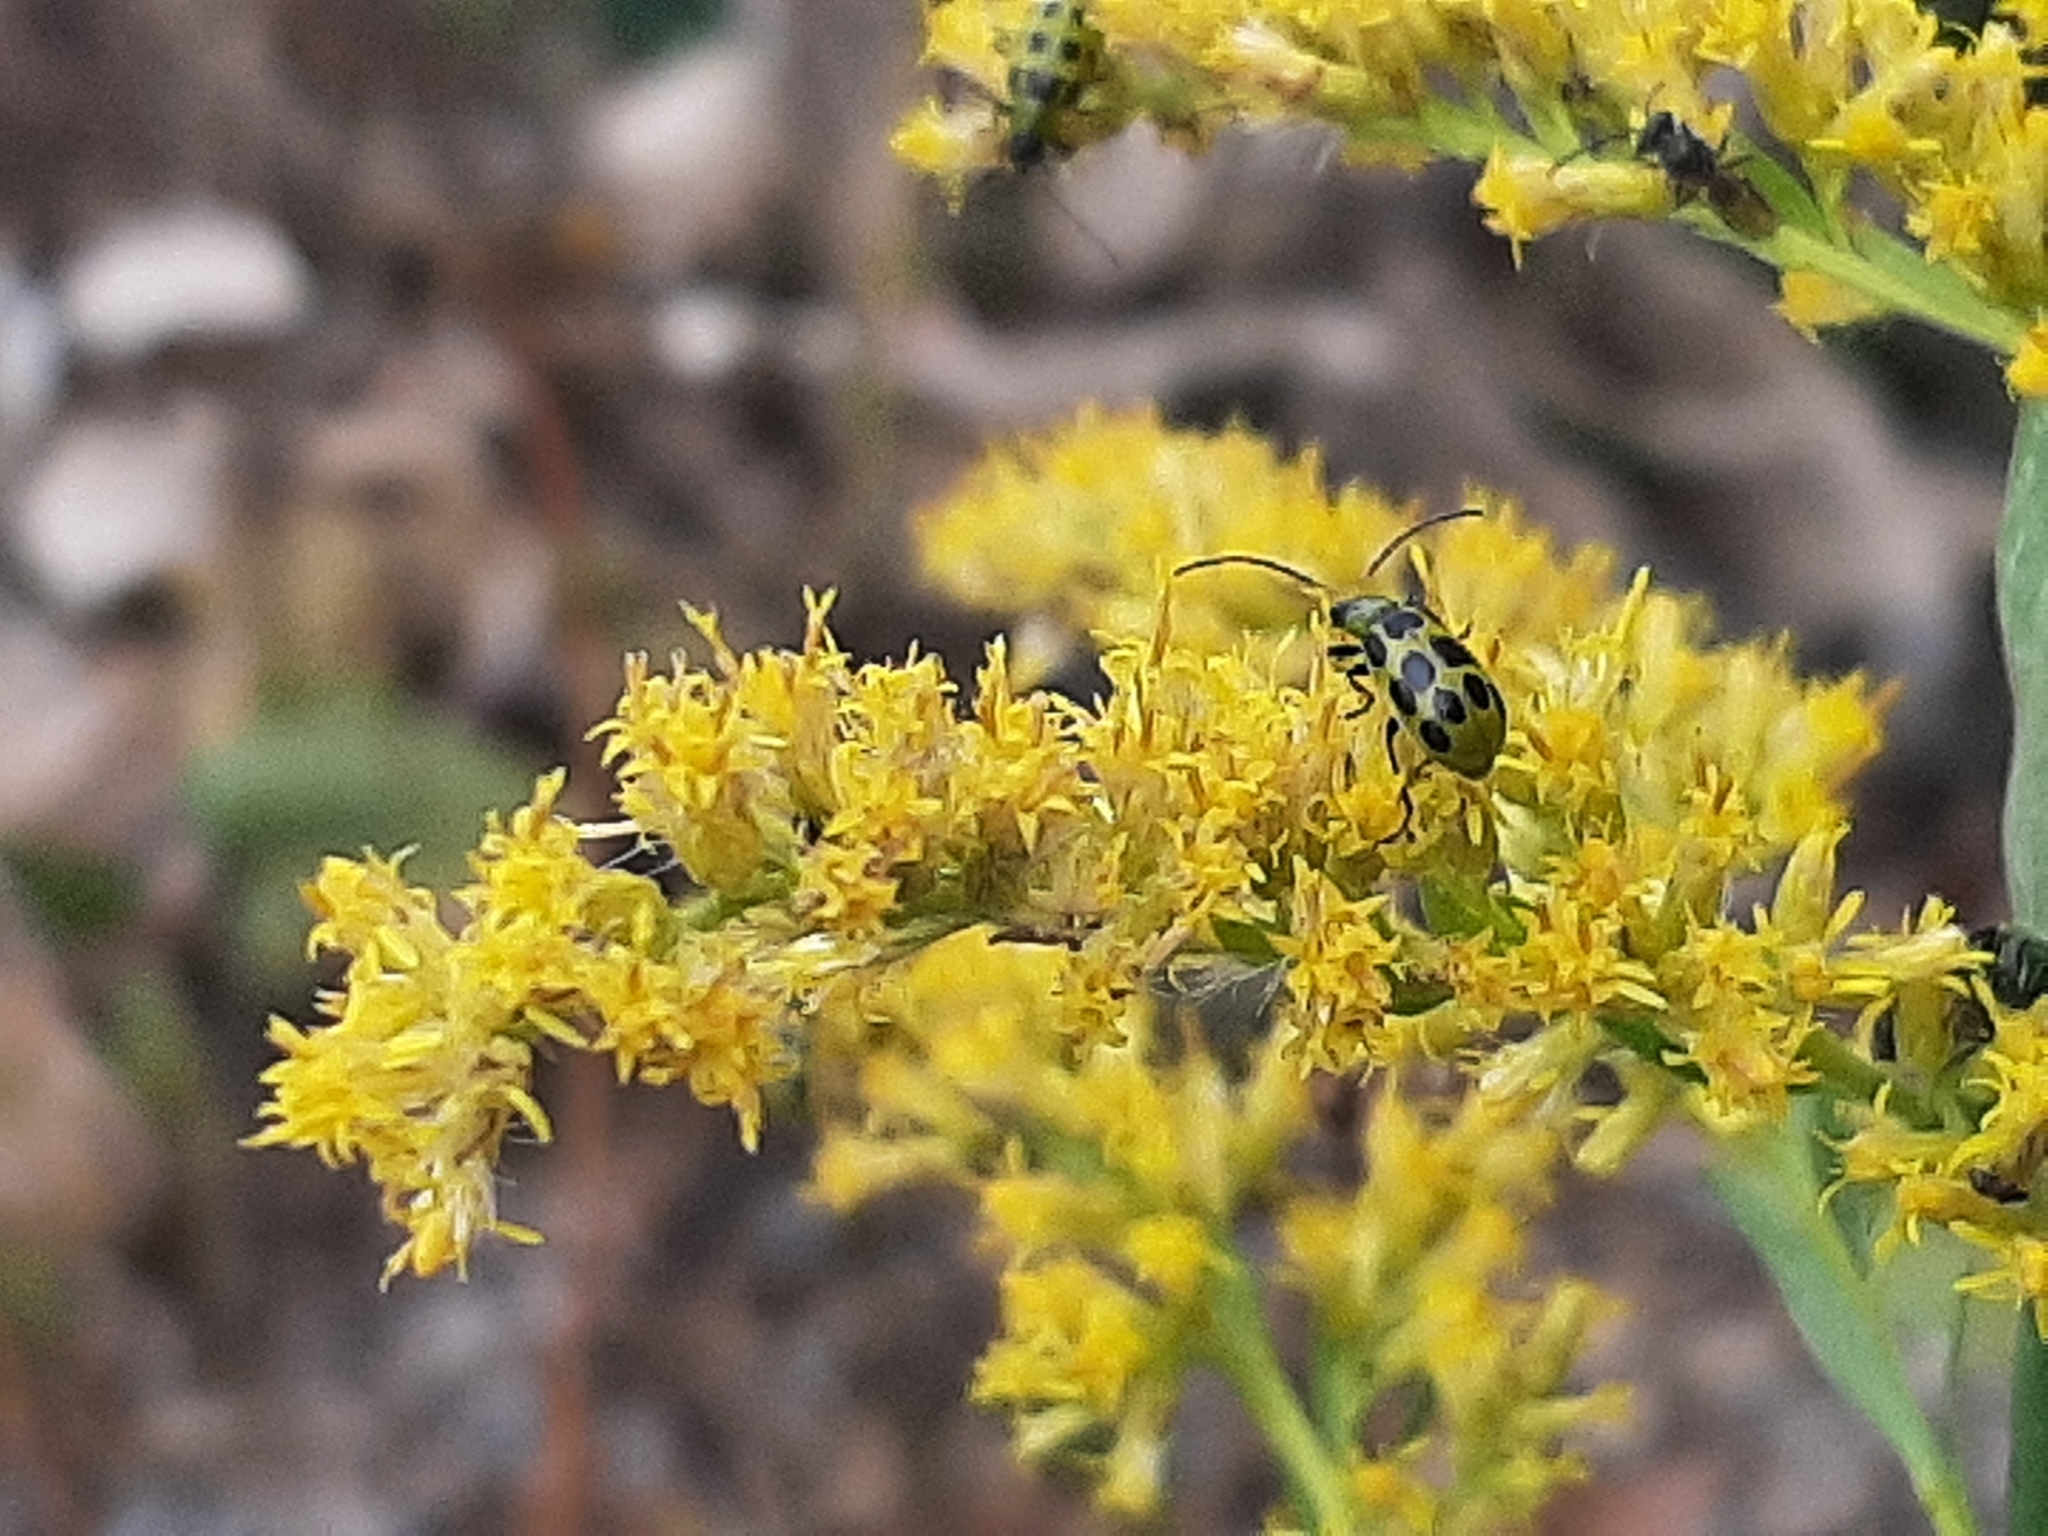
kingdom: Animalia
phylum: Arthropoda
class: Insecta
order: Coleoptera
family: Chrysomelidae
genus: Diabrotica
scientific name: Diabrotica undecimpunctata
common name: Spotted cucumber beetle
